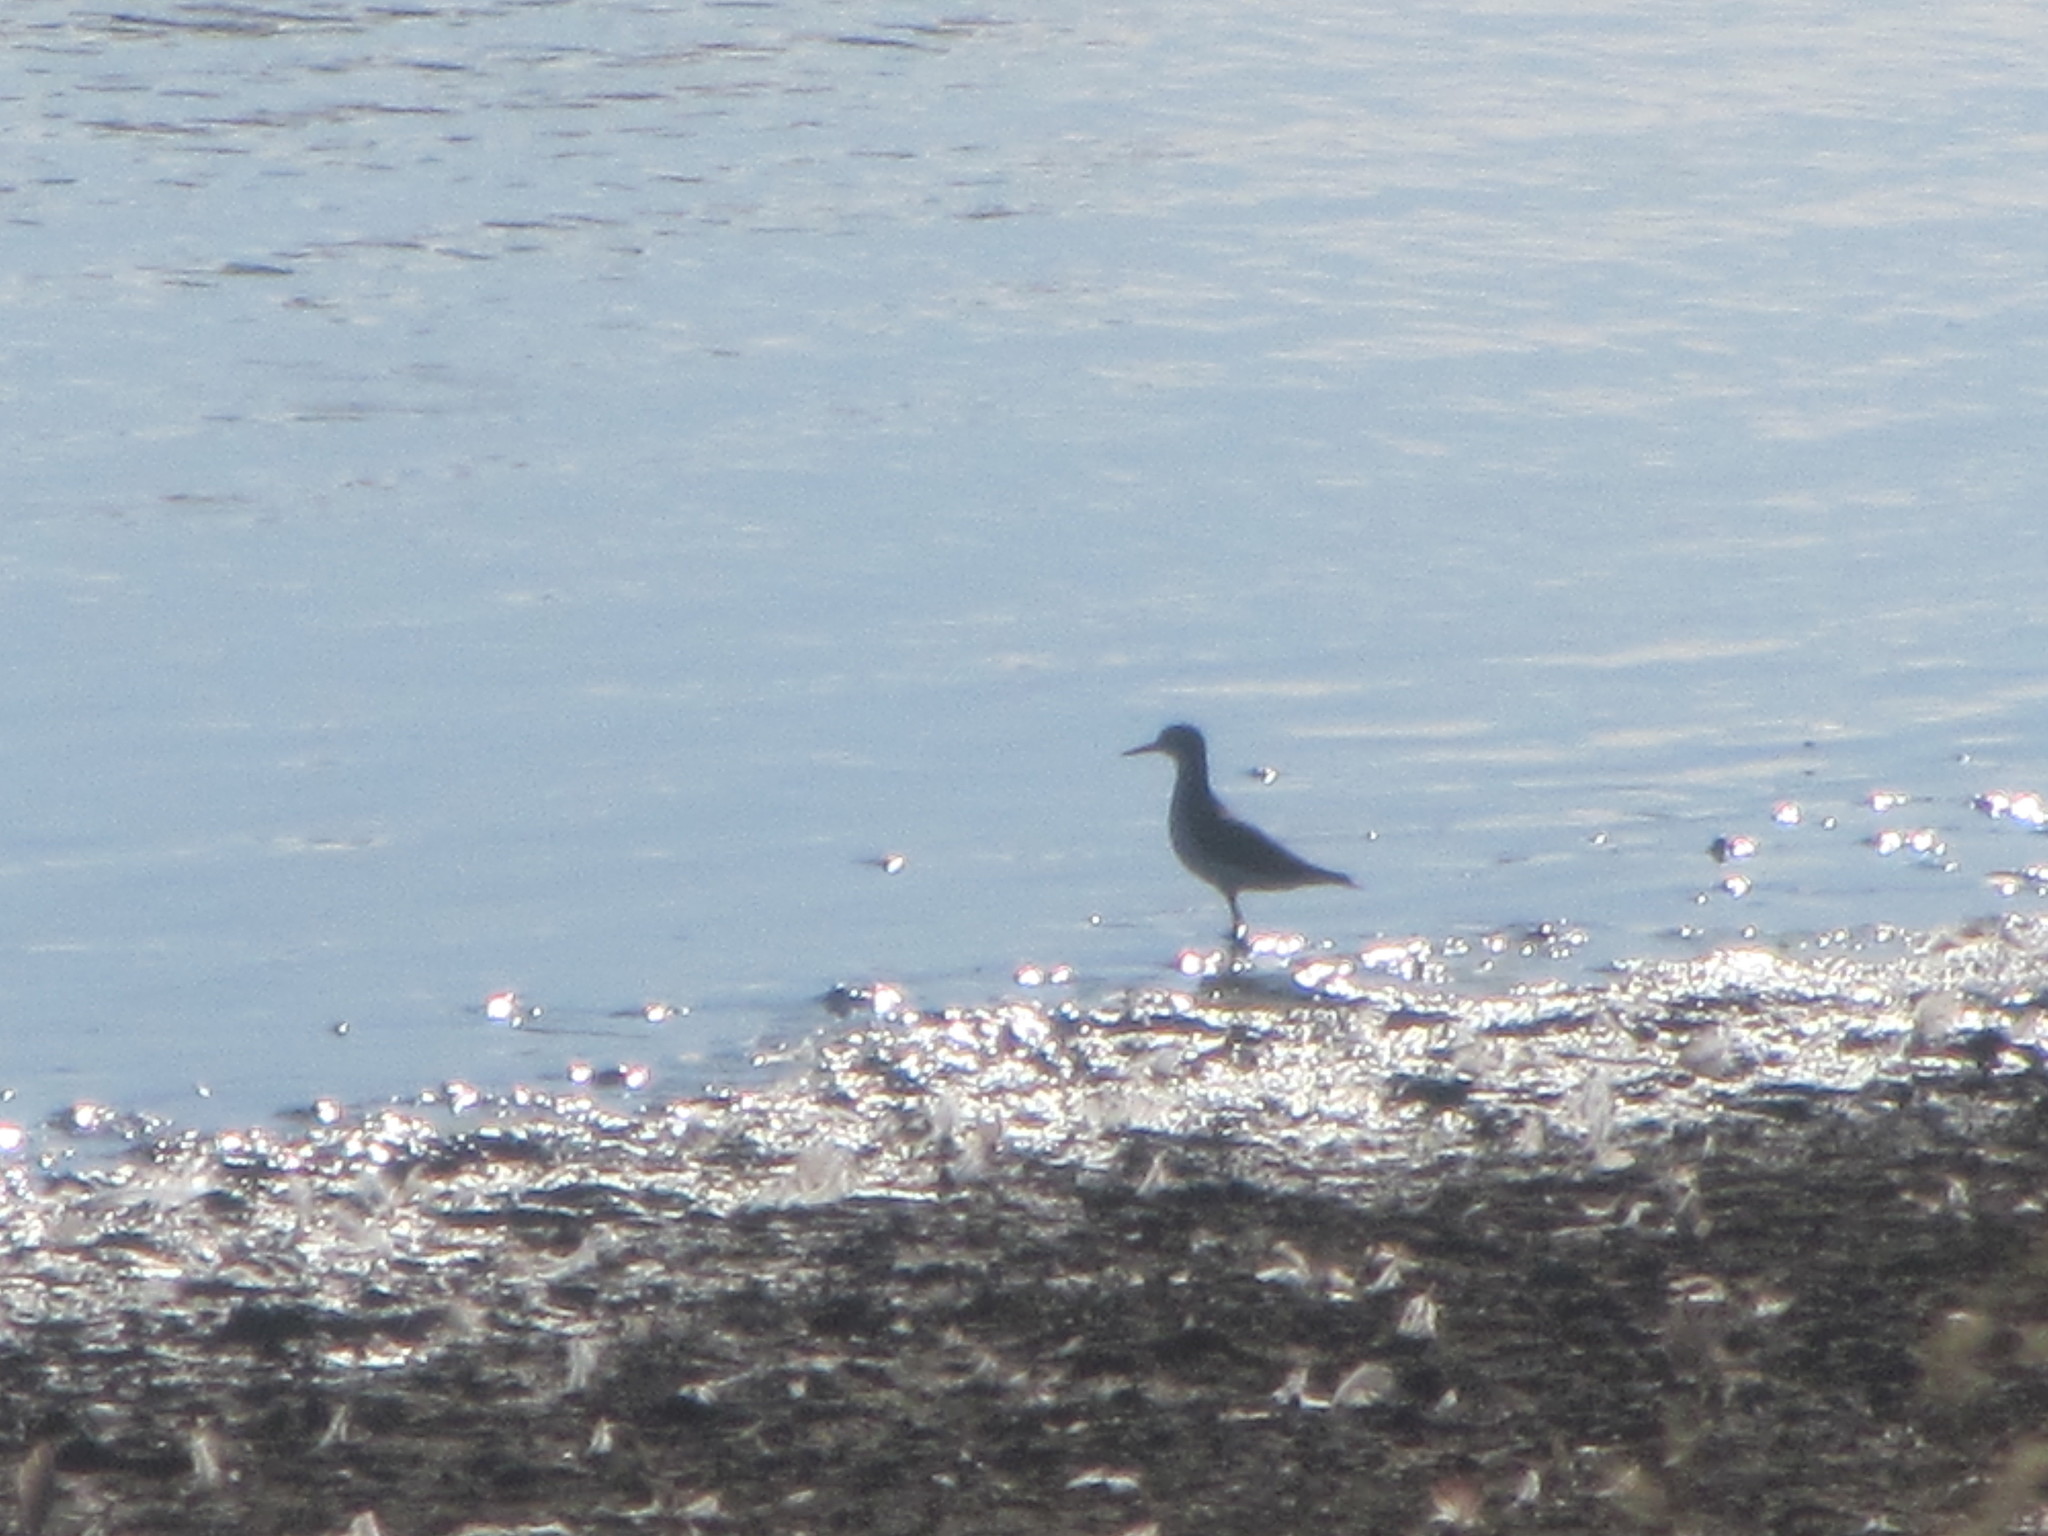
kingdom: Animalia
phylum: Chordata
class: Aves
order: Charadriiformes
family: Scolopacidae
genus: Actitis
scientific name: Actitis macularius
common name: Spotted sandpiper
